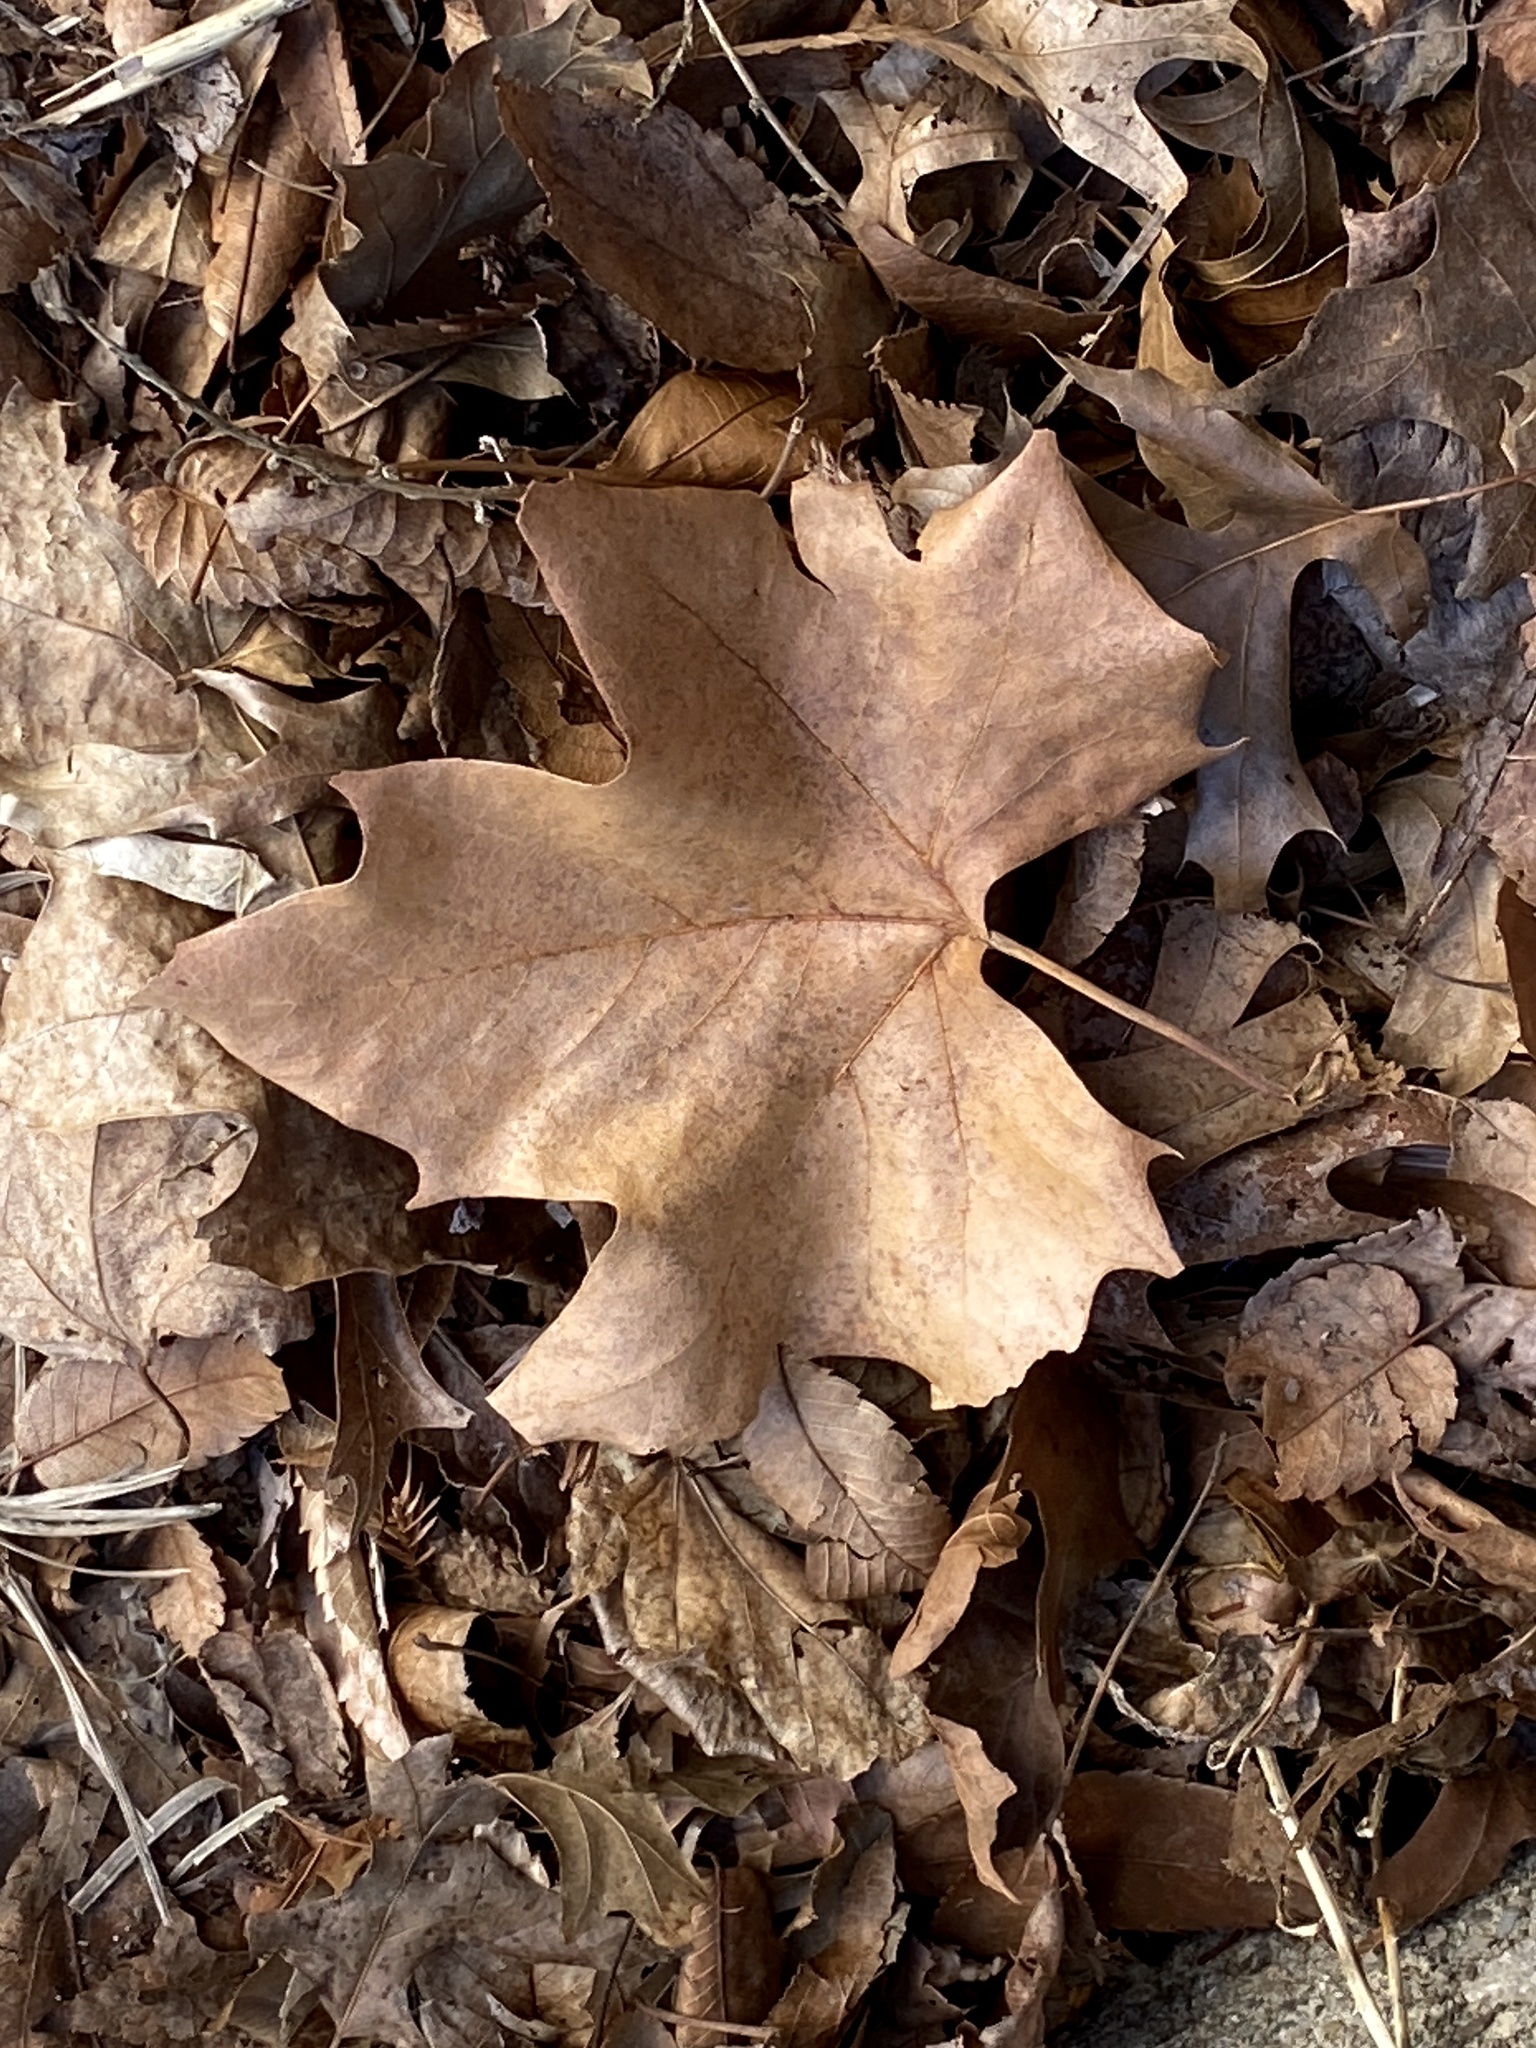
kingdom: Plantae
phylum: Tracheophyta
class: Magnoliopsida
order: Proteales
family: Platanaceae
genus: Platanus
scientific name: Platanus occidentalis
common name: American sycamore
